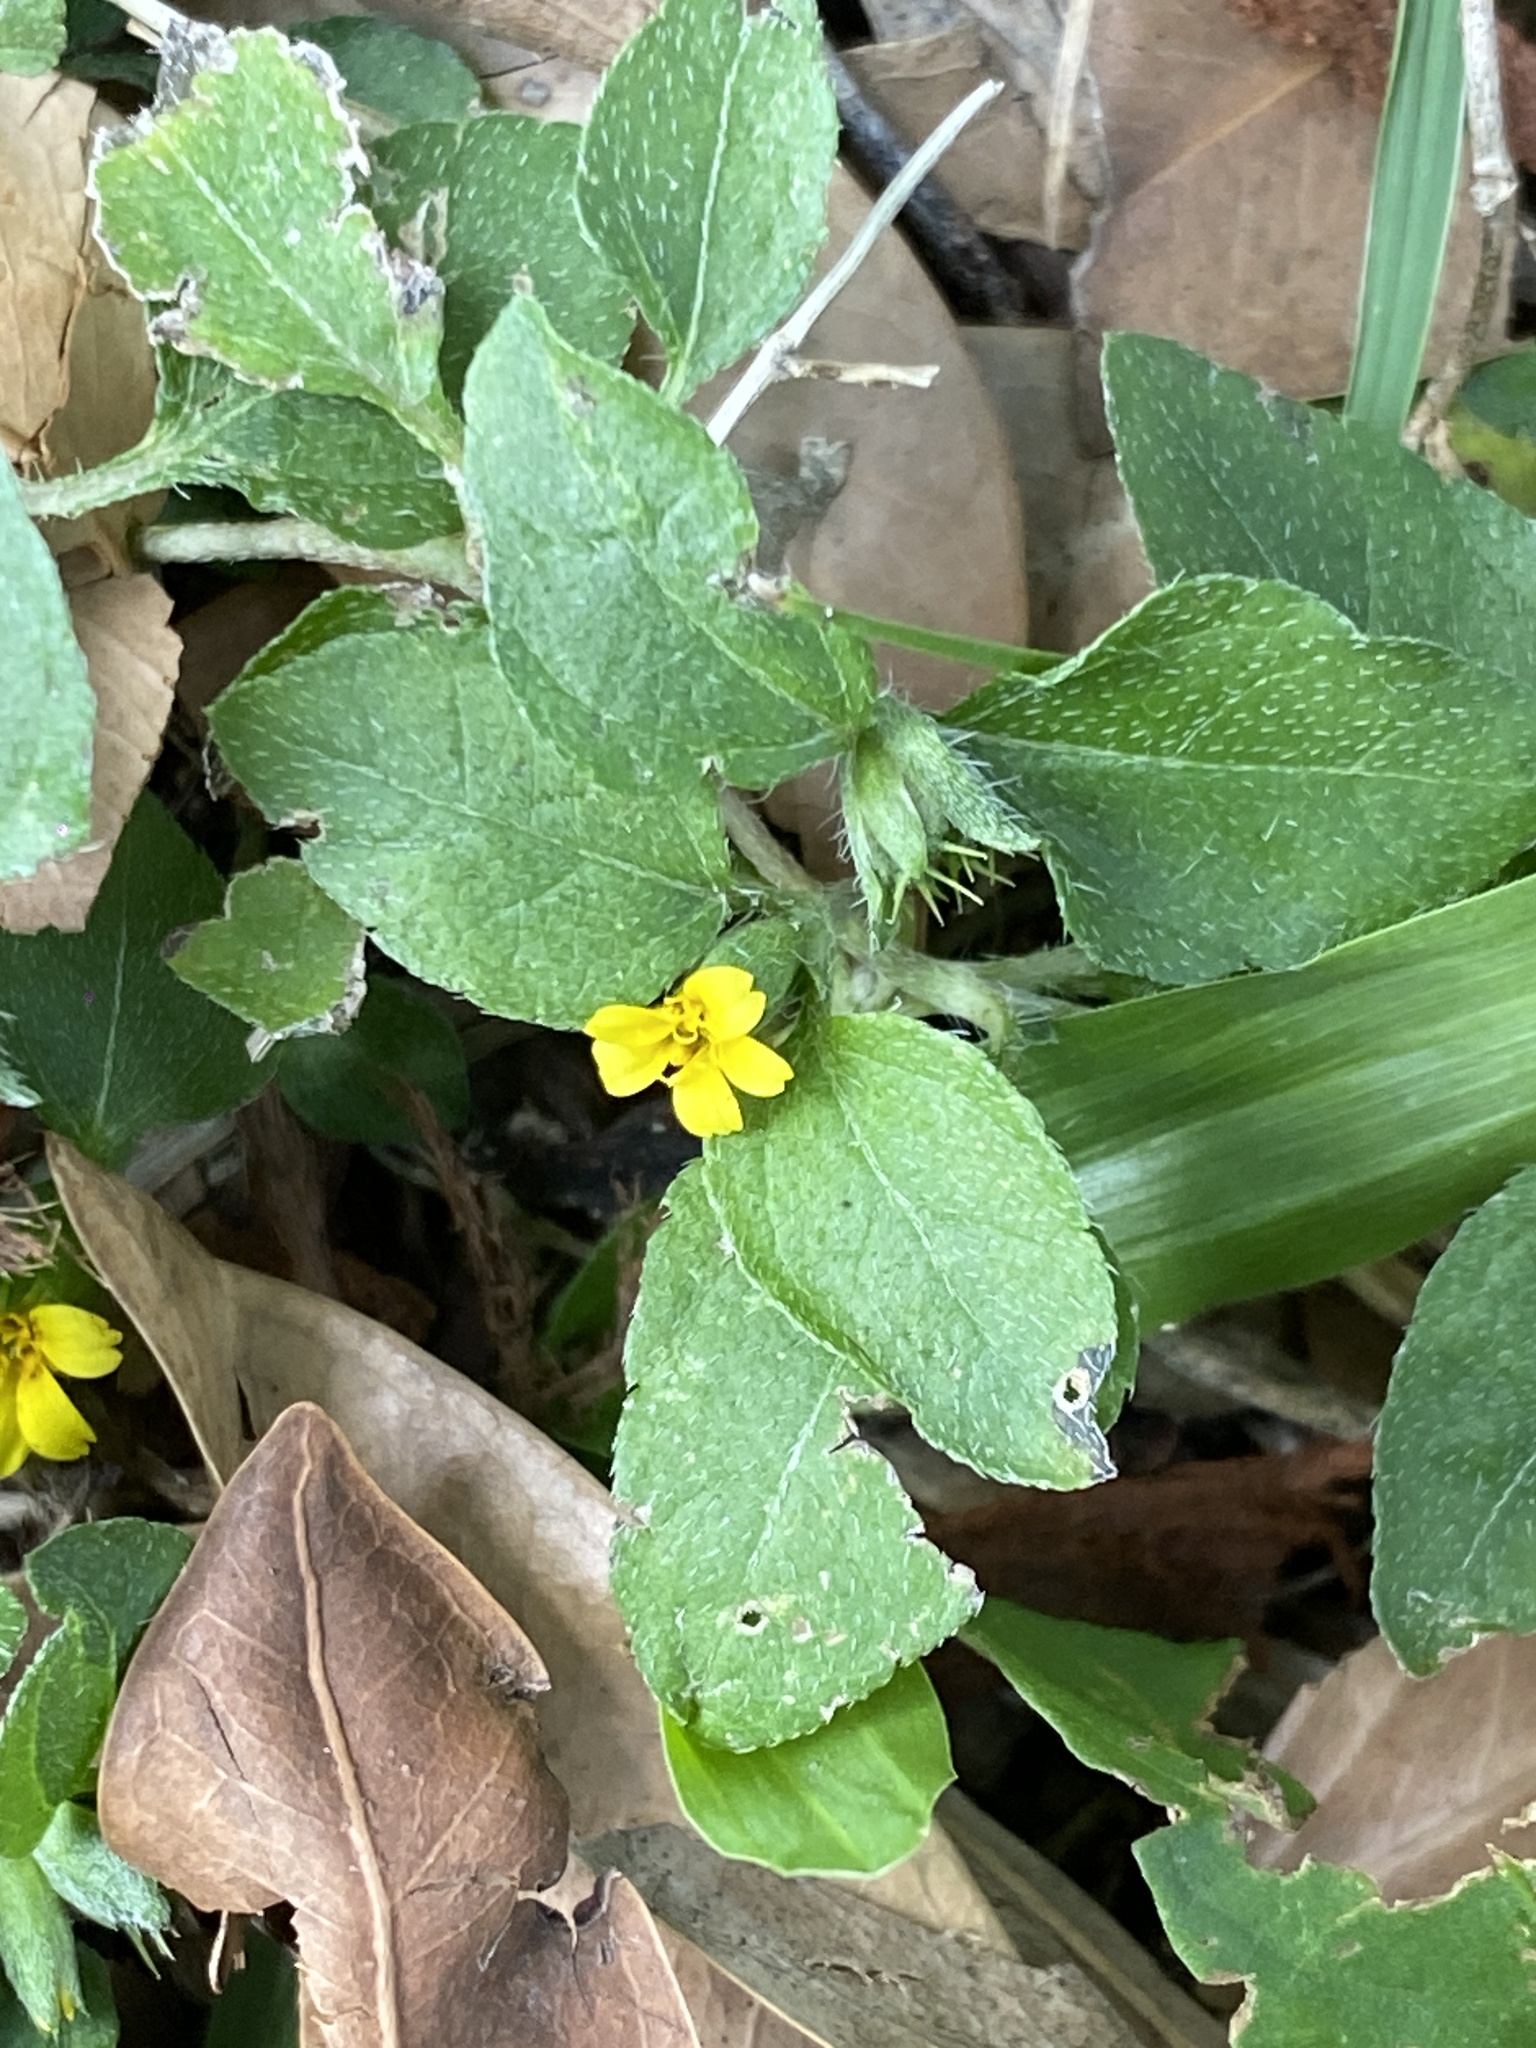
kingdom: Plantae
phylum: Tracheophyta
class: Magnoliopsida
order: Asterales
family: Asteraceae
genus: Calyptocarpus
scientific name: Calyptocarpus vialis
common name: Straggler daisy
